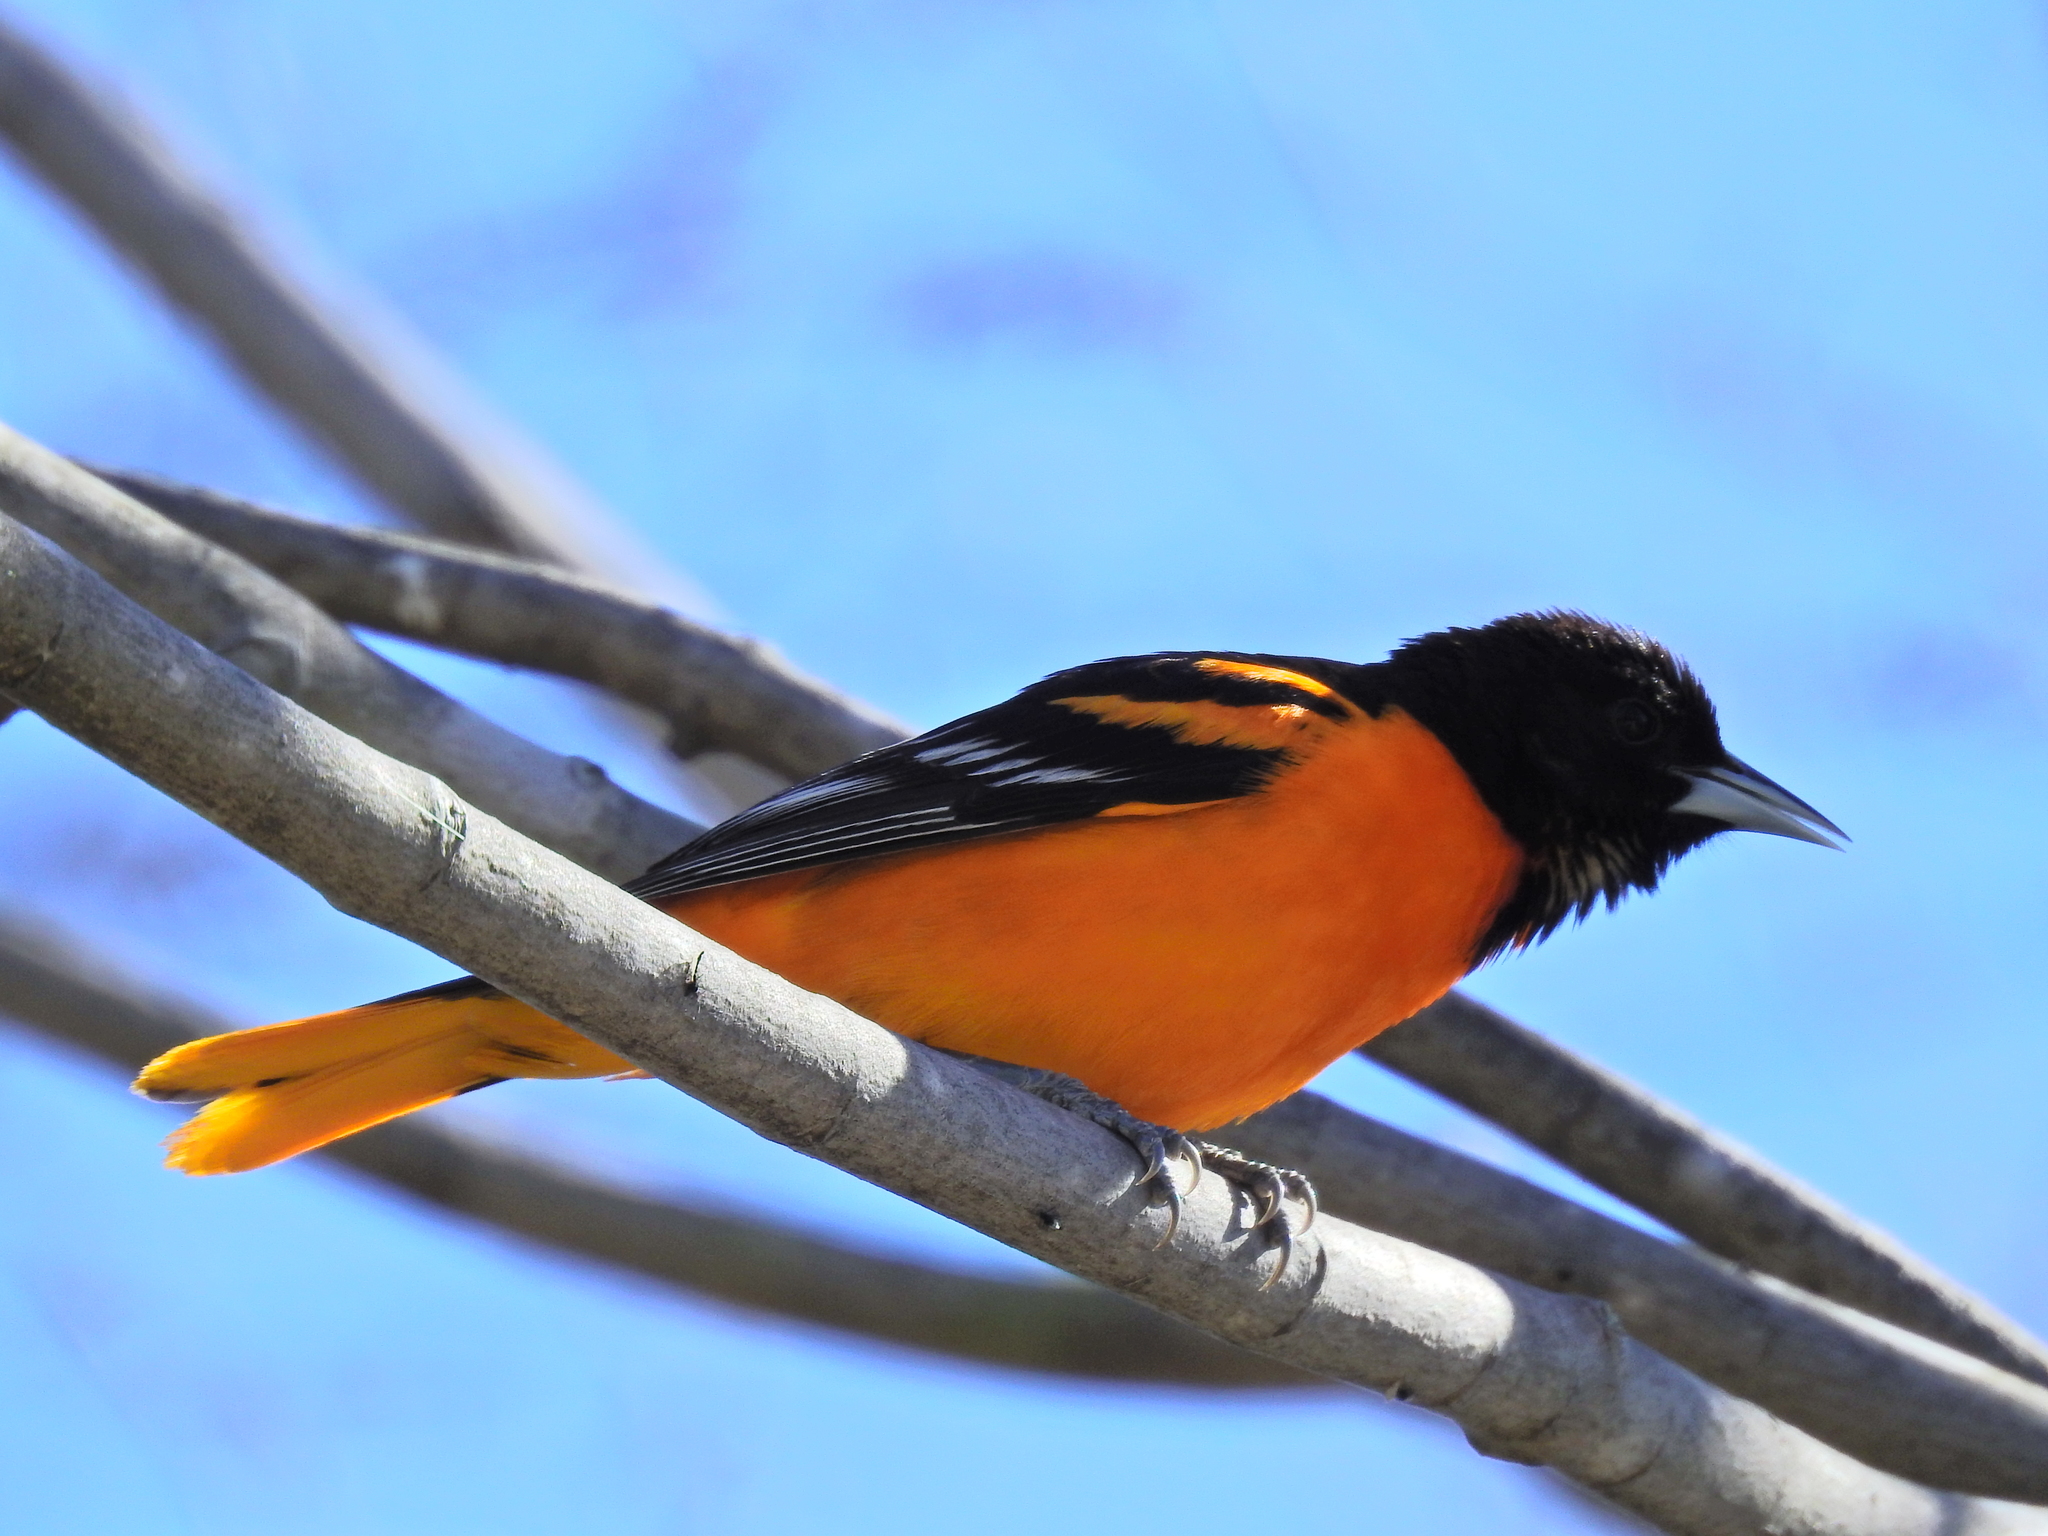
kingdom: Animalia
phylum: Chordata
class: Aves
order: Passeriformes
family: Icteridae
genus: Icterus
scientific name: Icterus galbula
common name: Baltimore oriole
